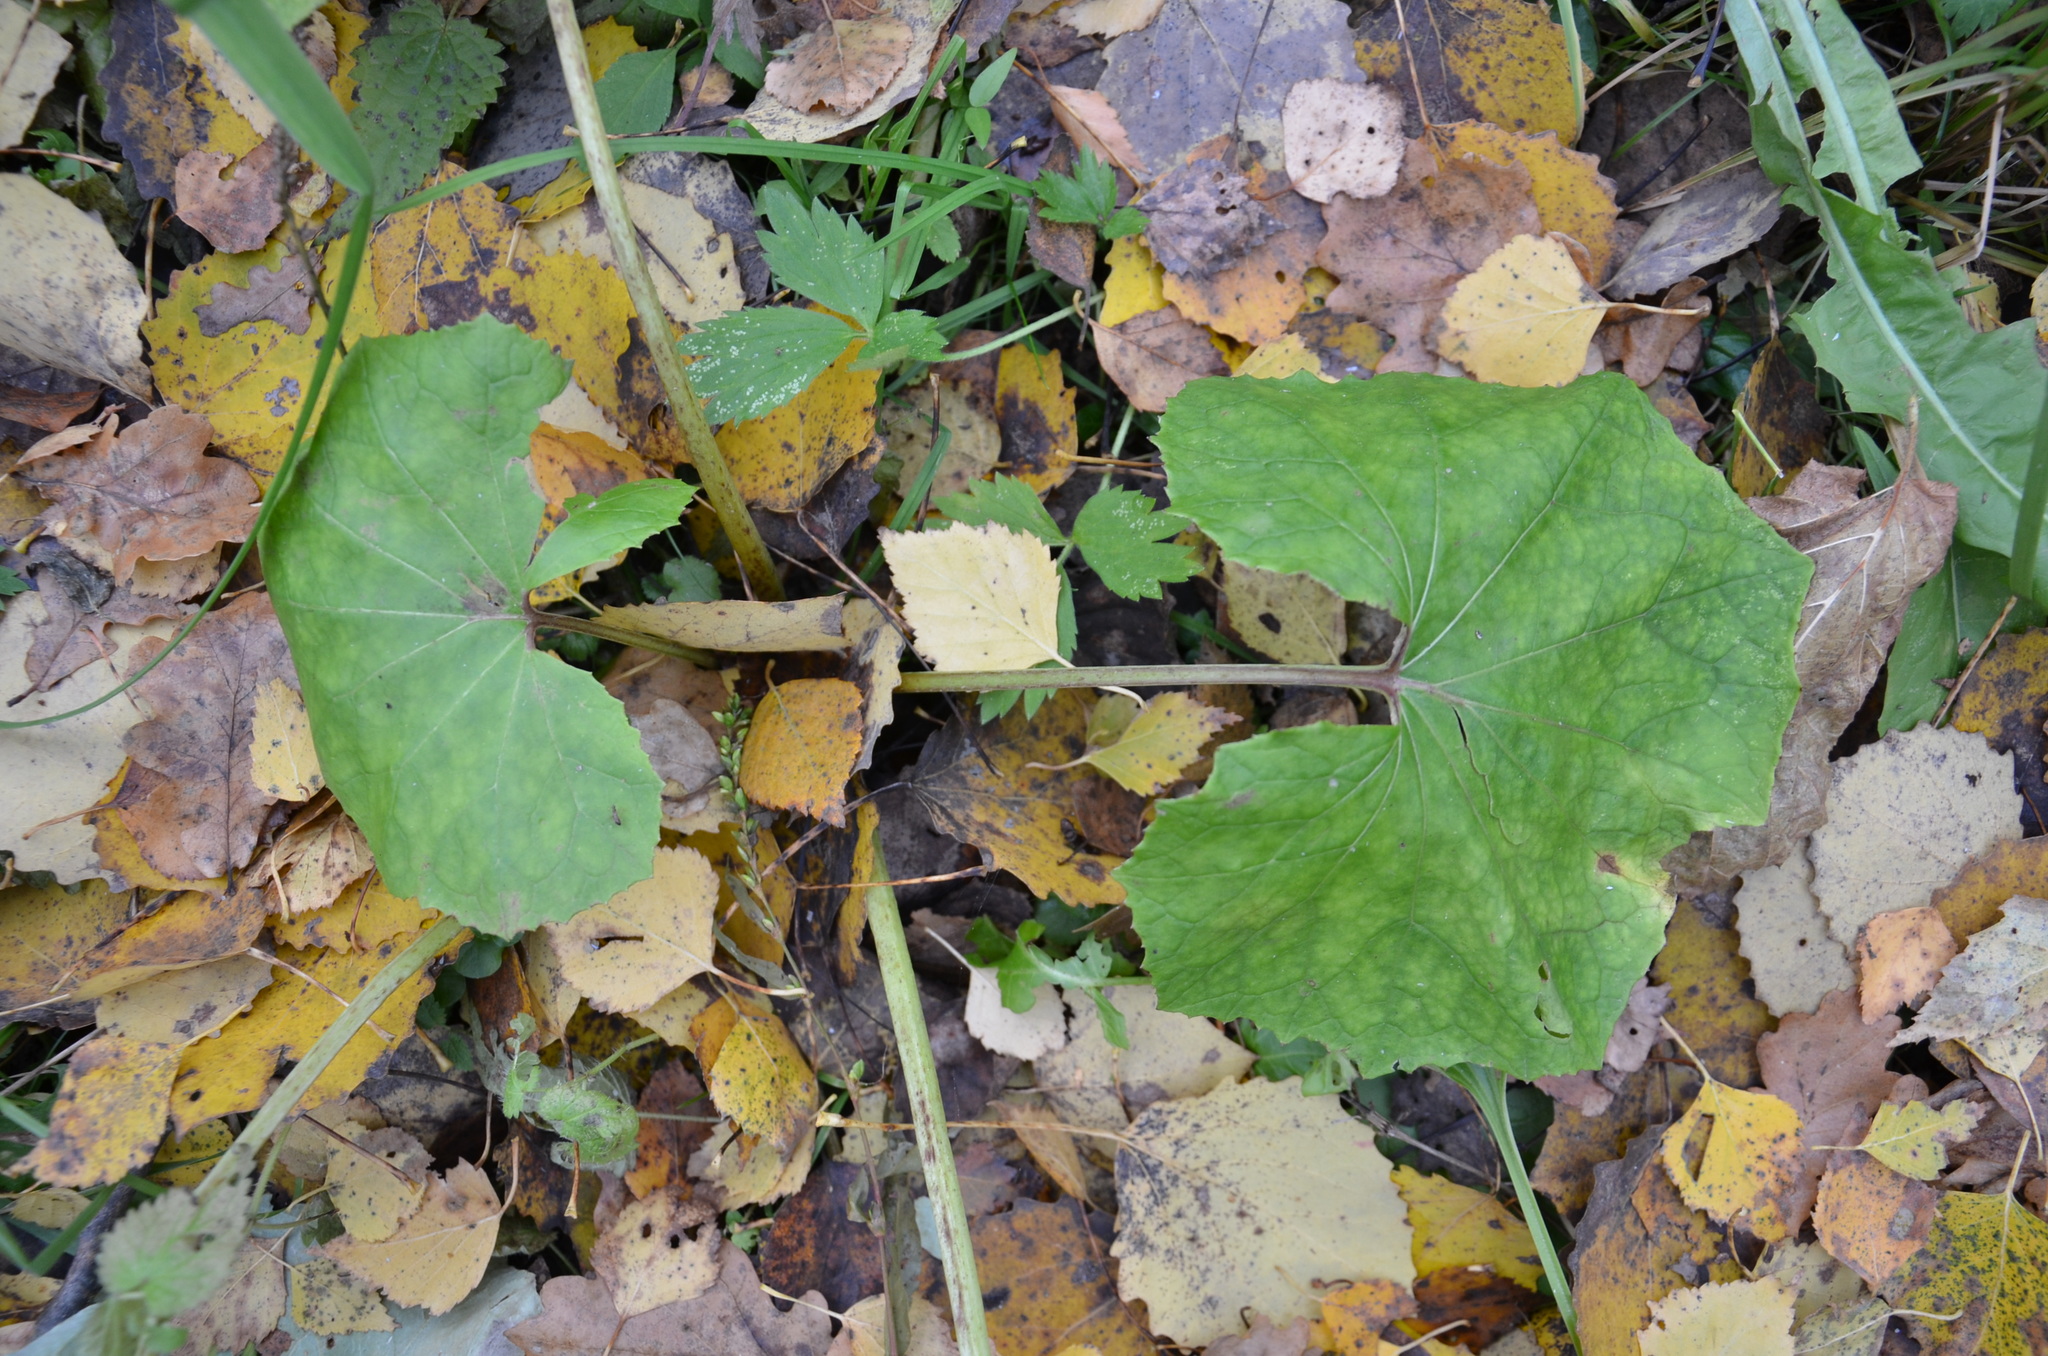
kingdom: Plantae
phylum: Tracheophyta
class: Magnoliopsida
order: Asterales
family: Asteraceae
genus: Tussilago
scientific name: Tussilago farfara
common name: Coltsfoot
